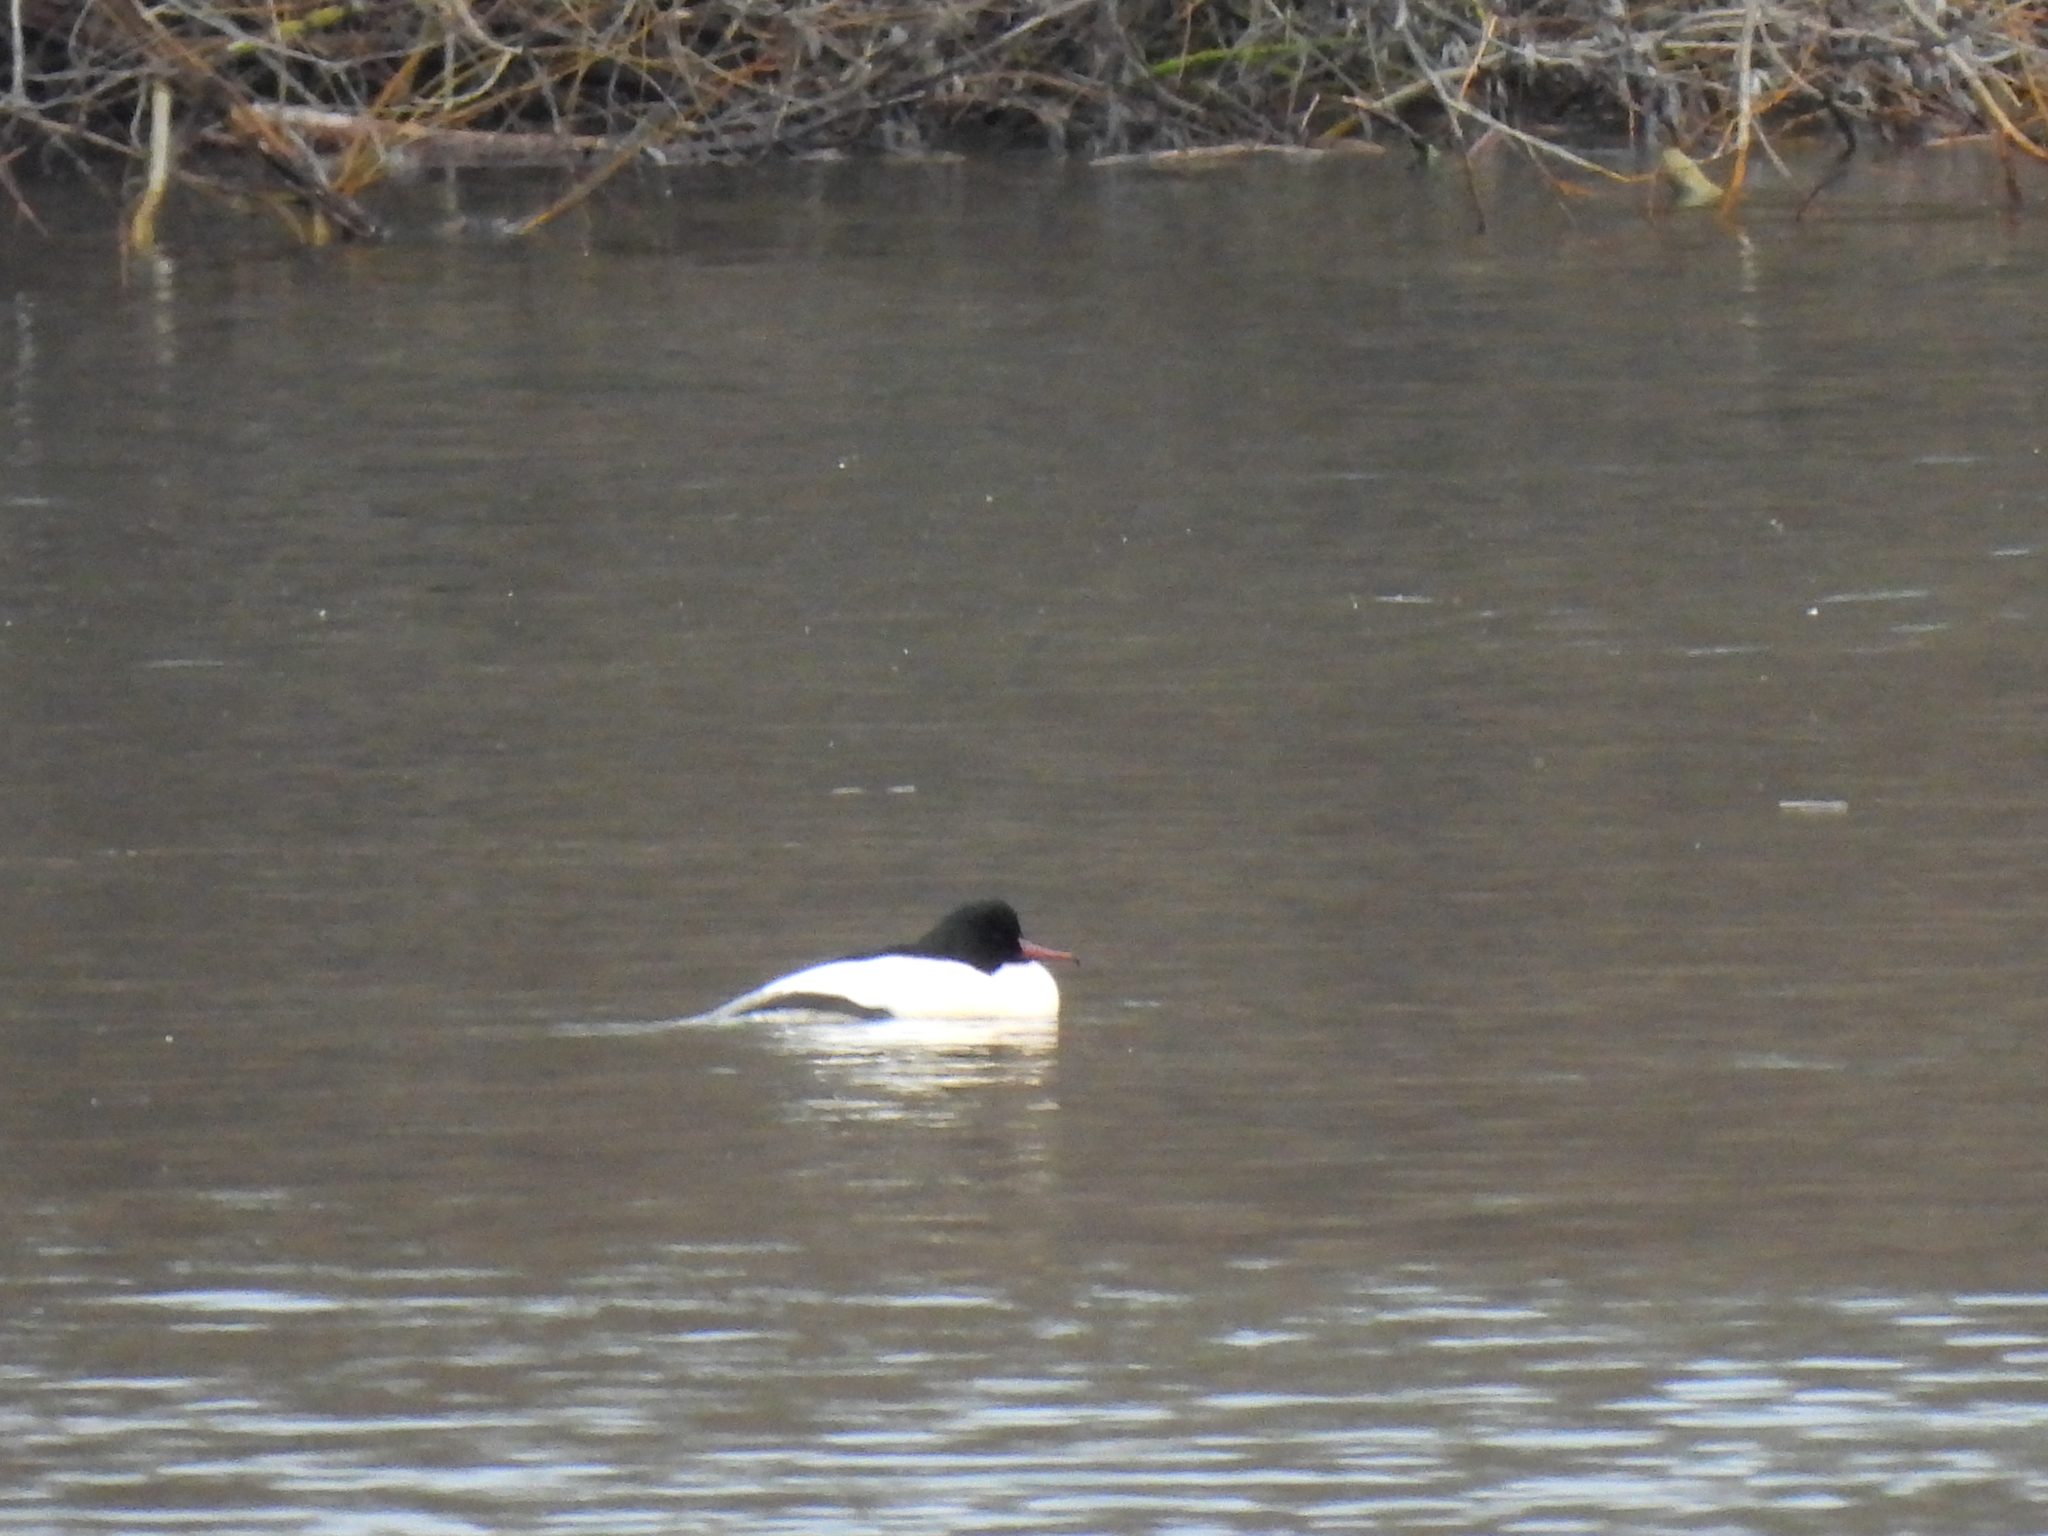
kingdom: Animalia
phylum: Chordata
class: Aves
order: Anseriformes
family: Anatidae
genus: Mergus
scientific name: Mergus merganser
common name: Common merganser
